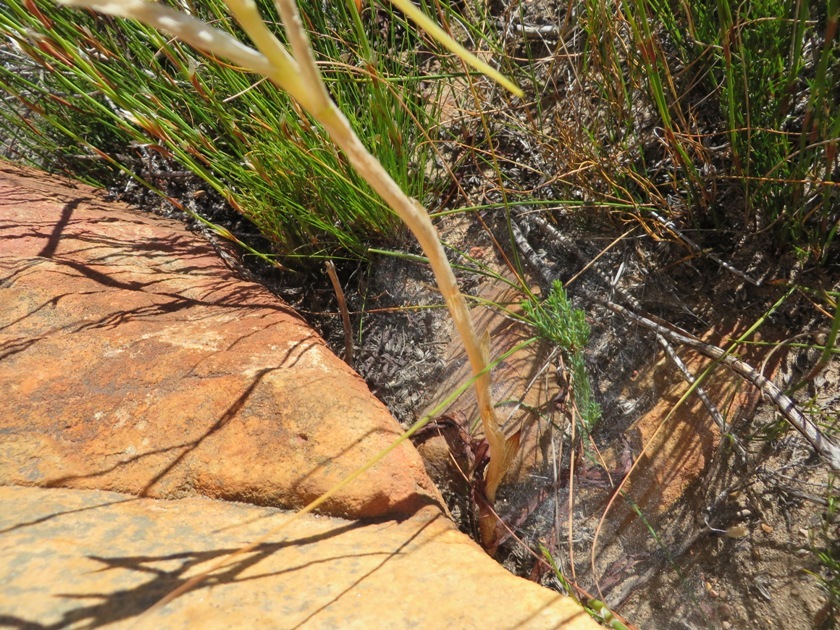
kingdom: Plantae
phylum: Tracheophyta
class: Liliopsida
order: Asparagales
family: Orchidaceae
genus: Disa
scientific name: Disa harveyana
